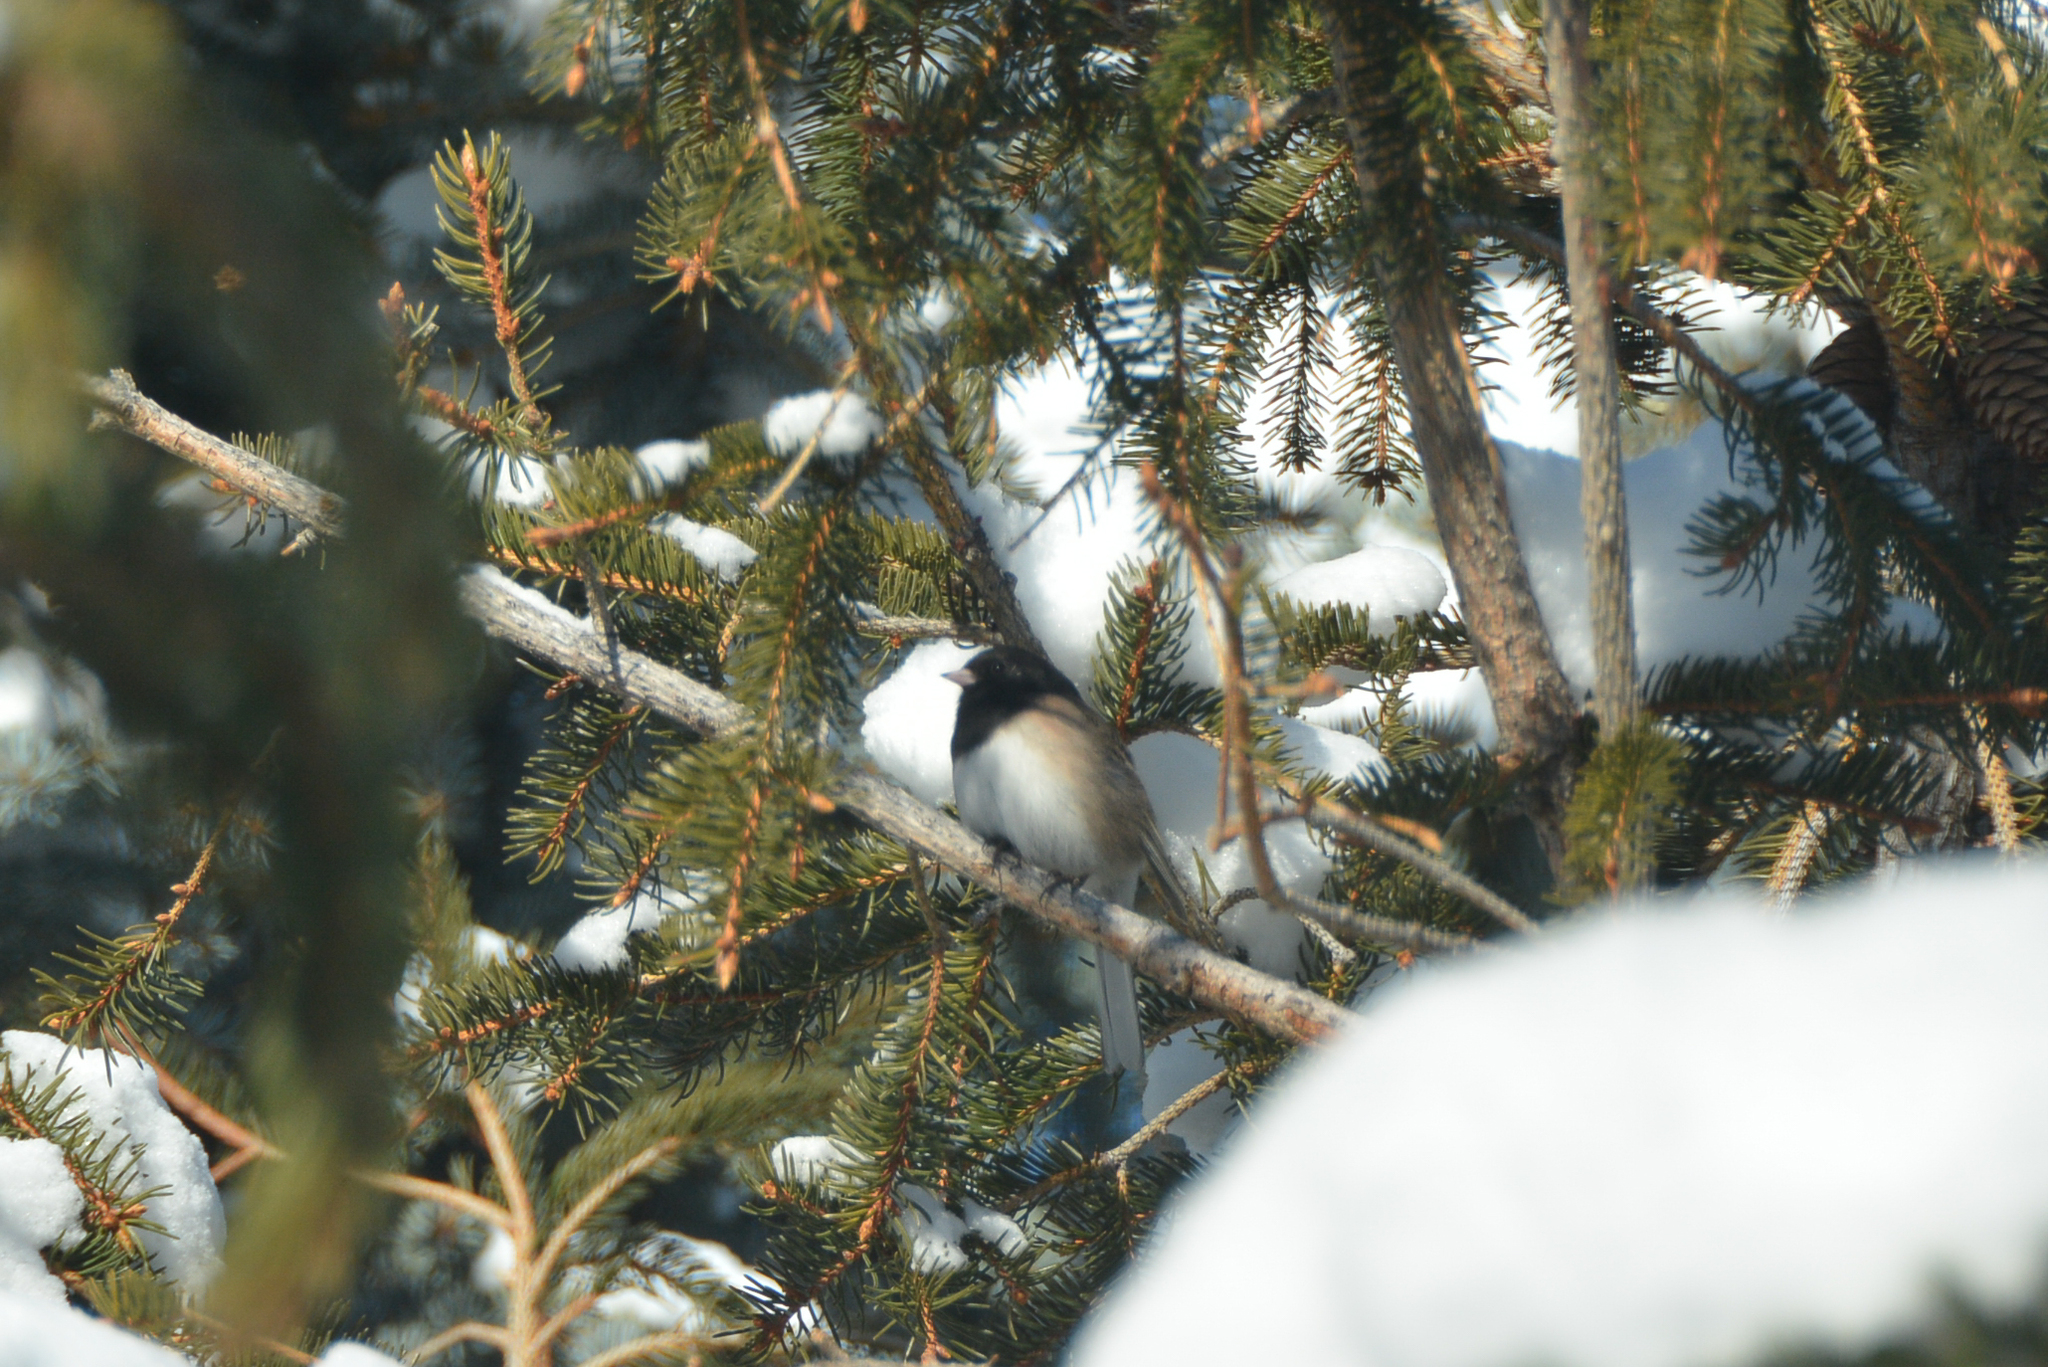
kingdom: Animalia
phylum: Chordata
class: Aves
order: Passeriformes
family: Passerellidae
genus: Junco
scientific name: Junco hyemalis
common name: Dark-eyed junco
